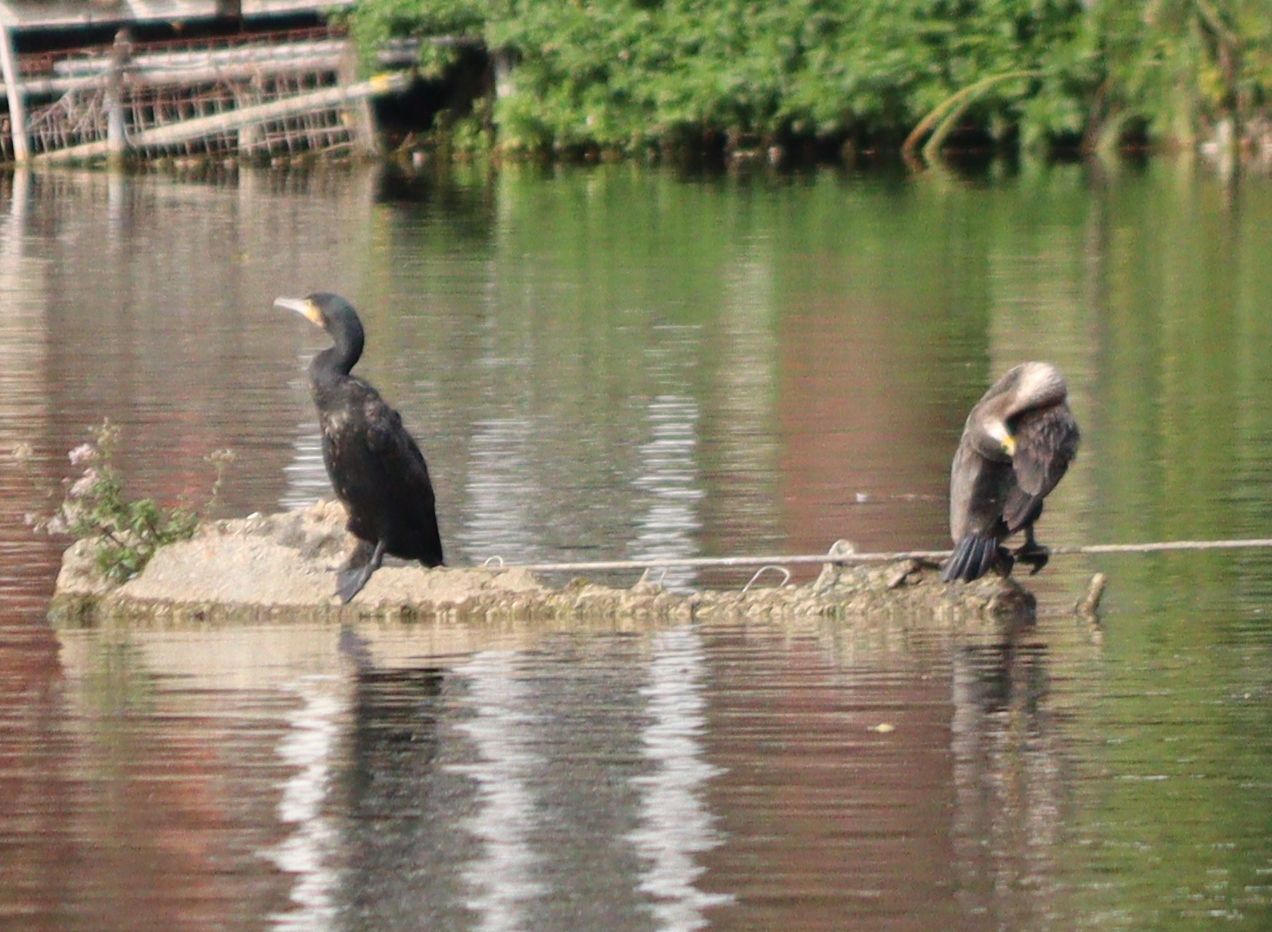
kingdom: Animalia
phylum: Chordata
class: Aves
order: Suliformes
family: Phalacrocoracidae
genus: Phalacrocorax
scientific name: Phalacrocorax carbo
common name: Great cormorant
